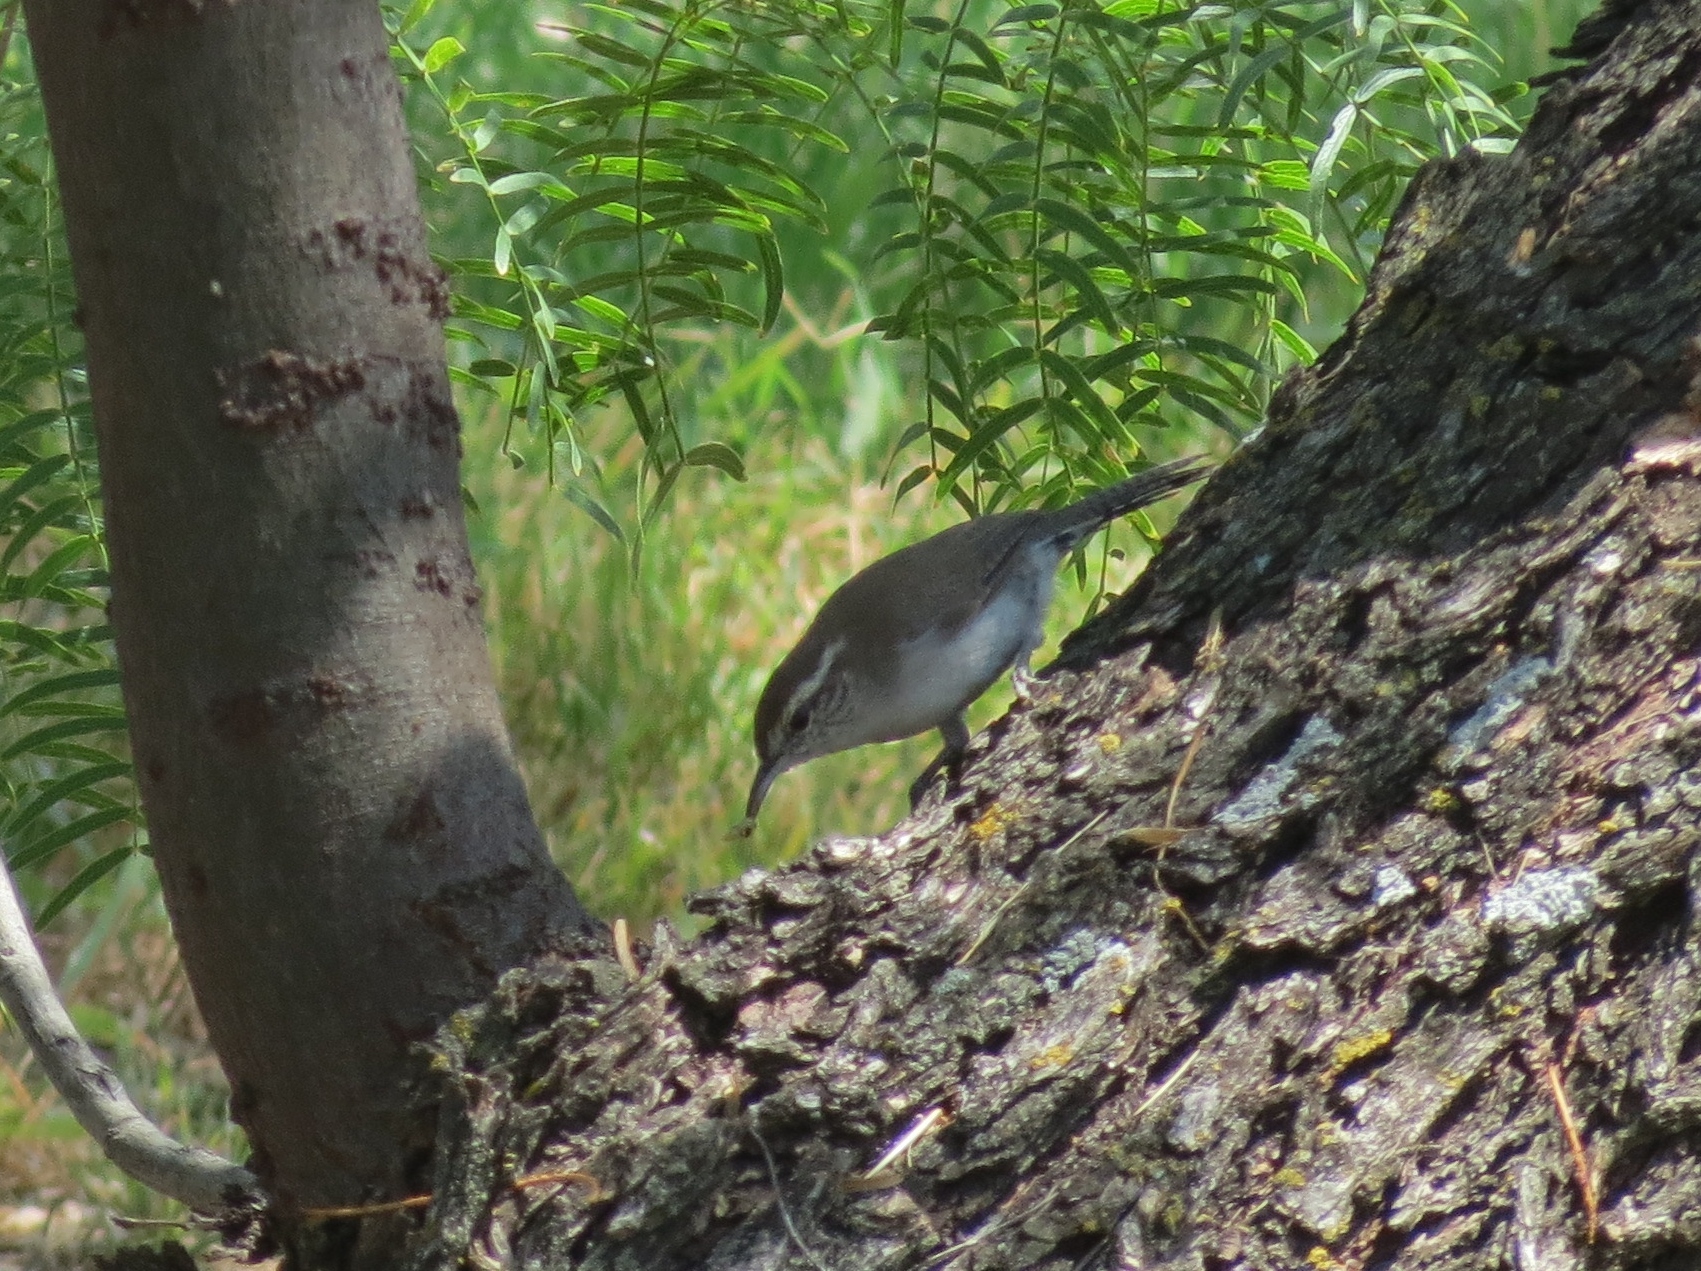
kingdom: Animalia
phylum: Chordata
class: Aves
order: Passeriformes
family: Troglodytidae
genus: Thryomanes
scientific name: Thryomanes bewickii
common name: Bewick's wren
